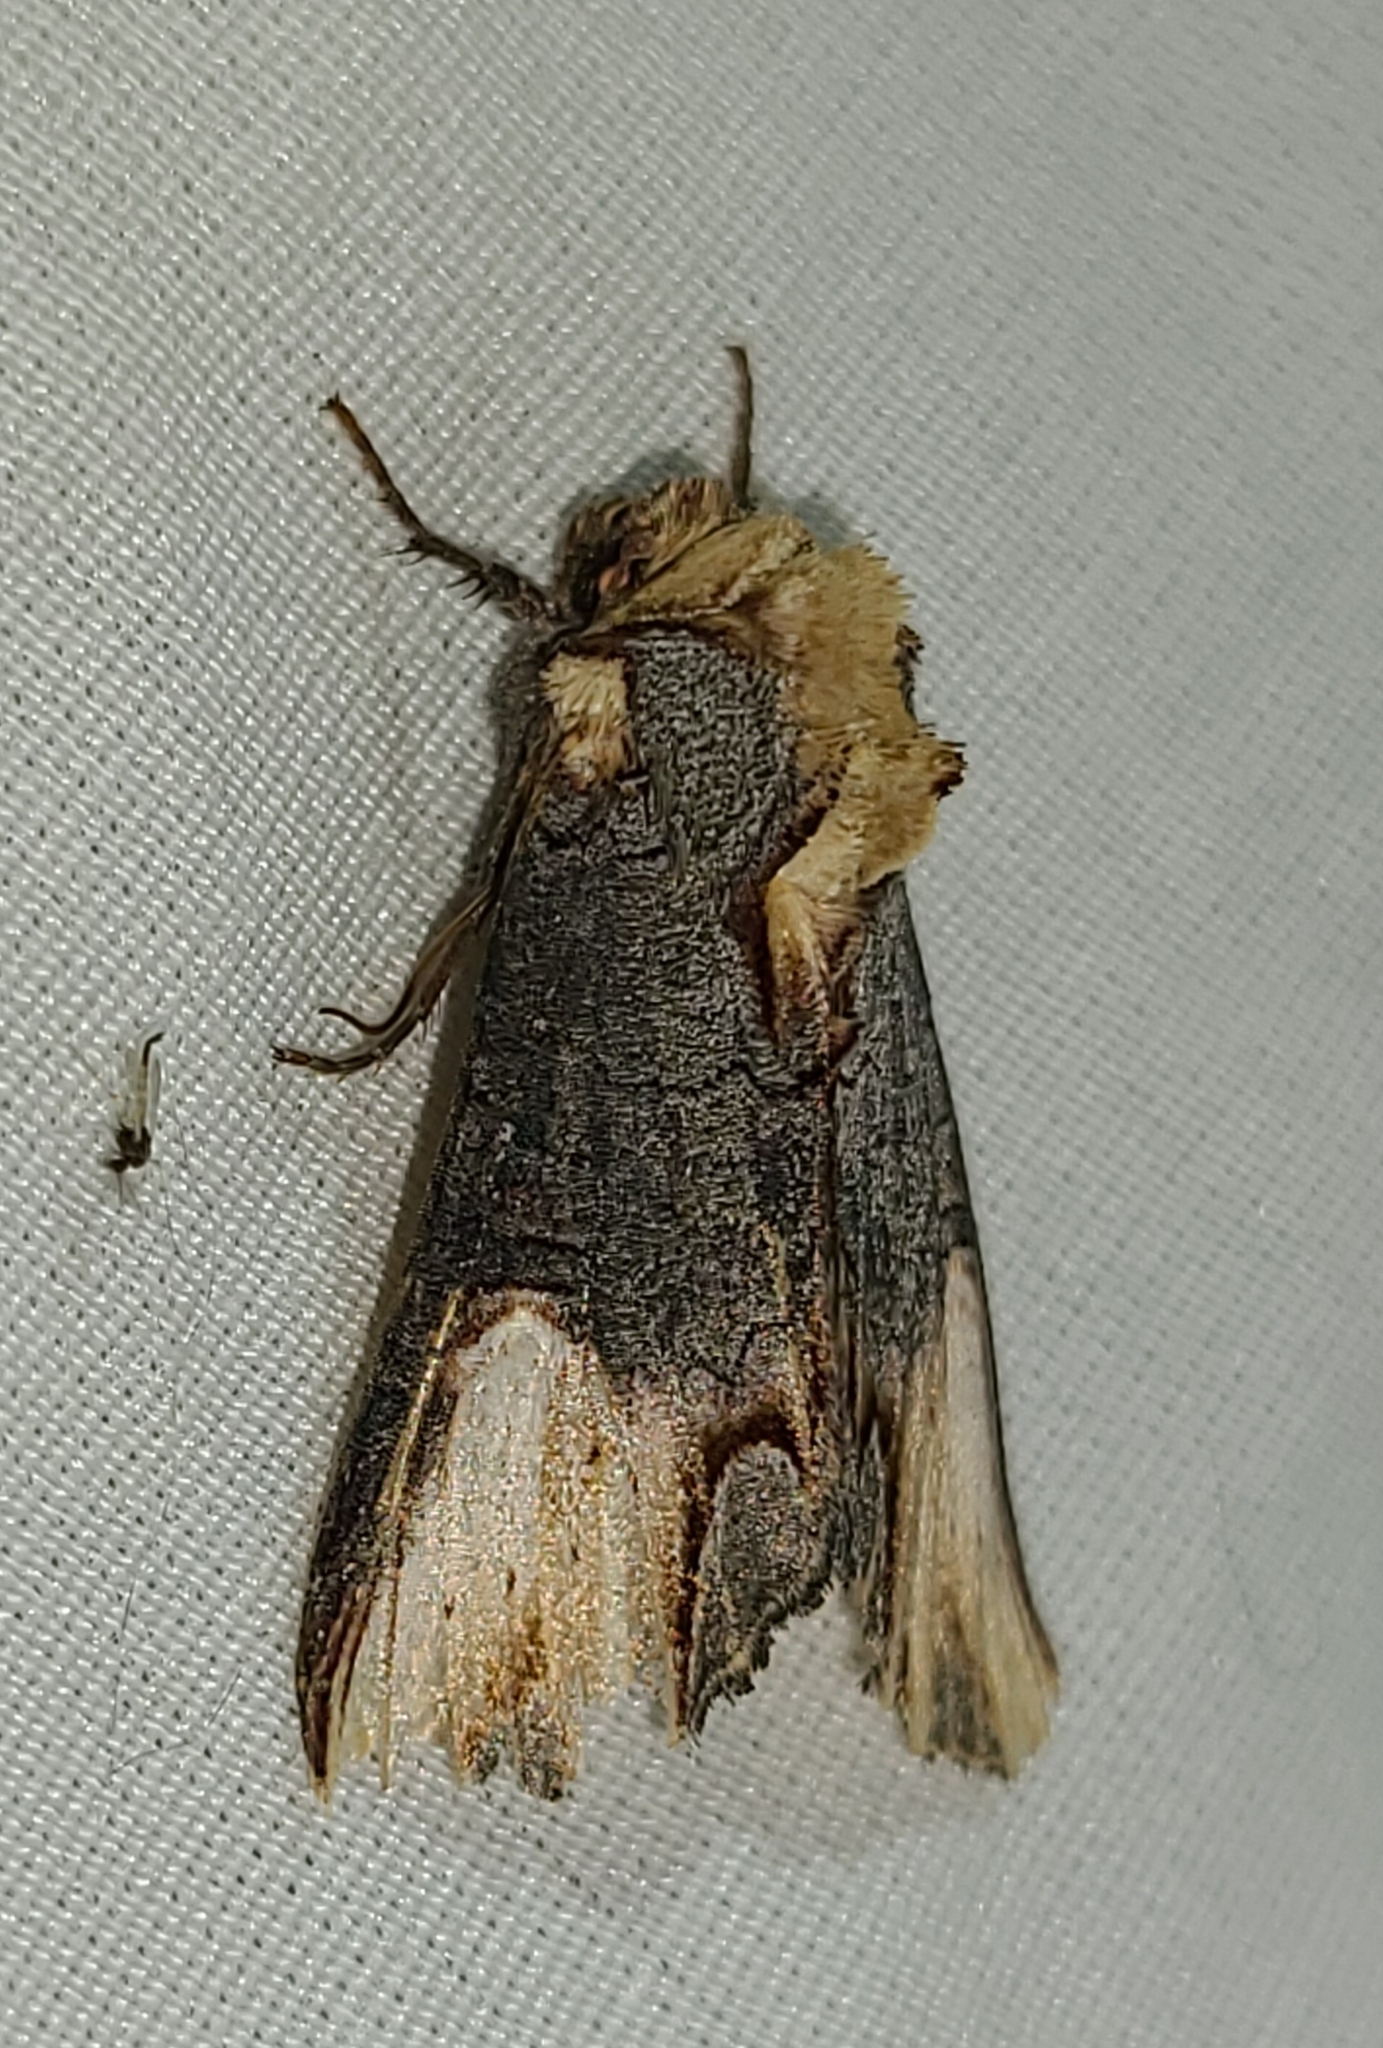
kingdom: Animalia
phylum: Arthropoda
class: Insecta
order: Lepidoptera
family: Noctuidae
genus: Admetovis
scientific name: Admetovis similaris
